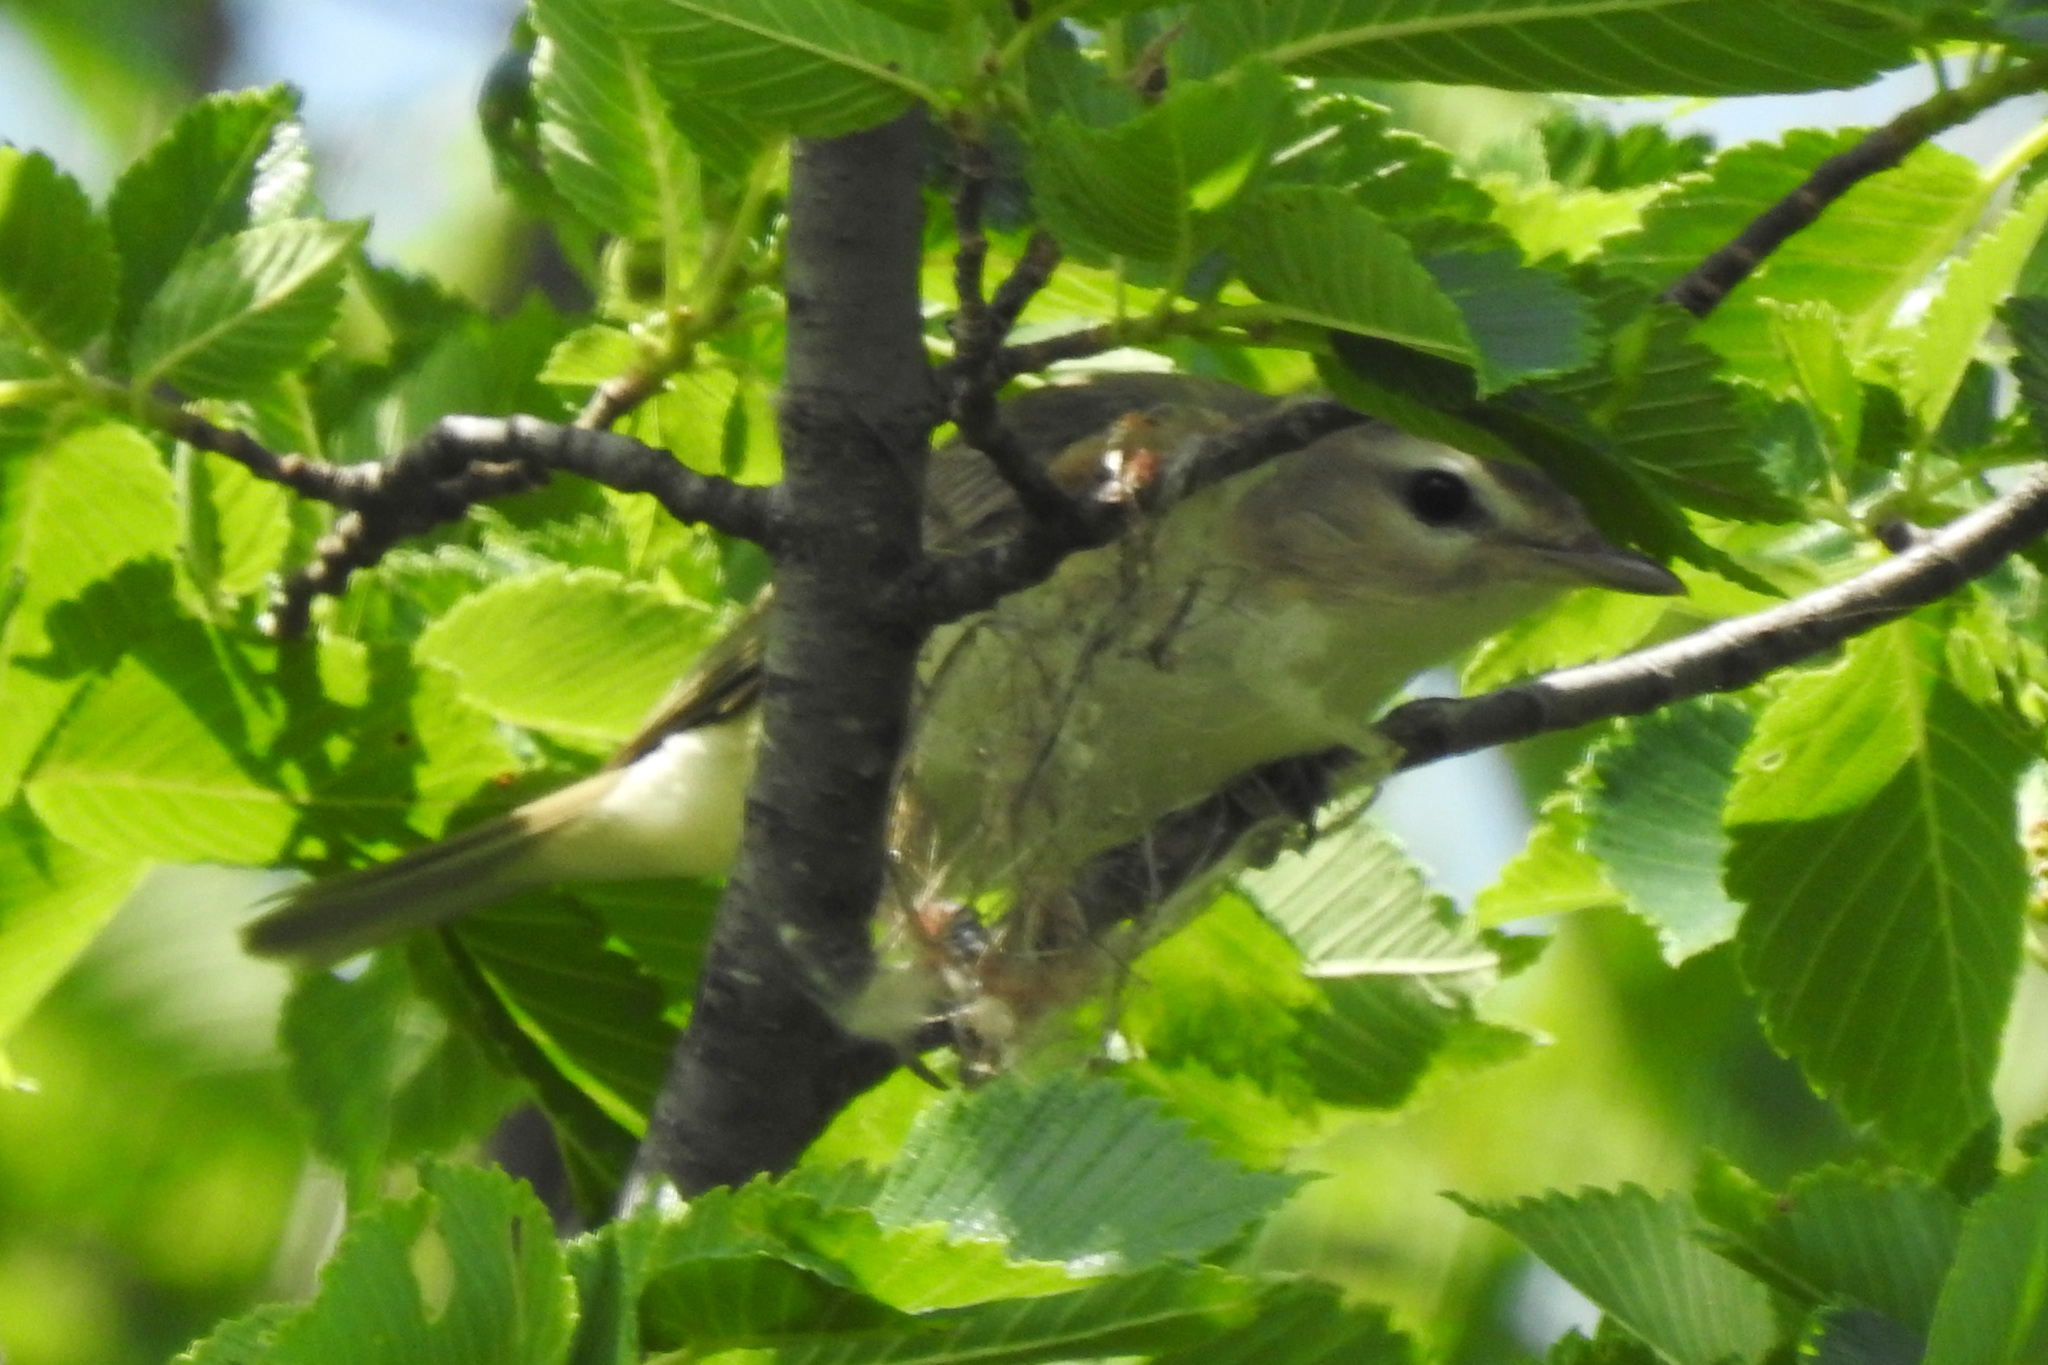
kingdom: Animalia
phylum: Chordata
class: Aves
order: Passeriformes
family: Vireonidae
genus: Vireo
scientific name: Vireo gilvus
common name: Warbling vireo
